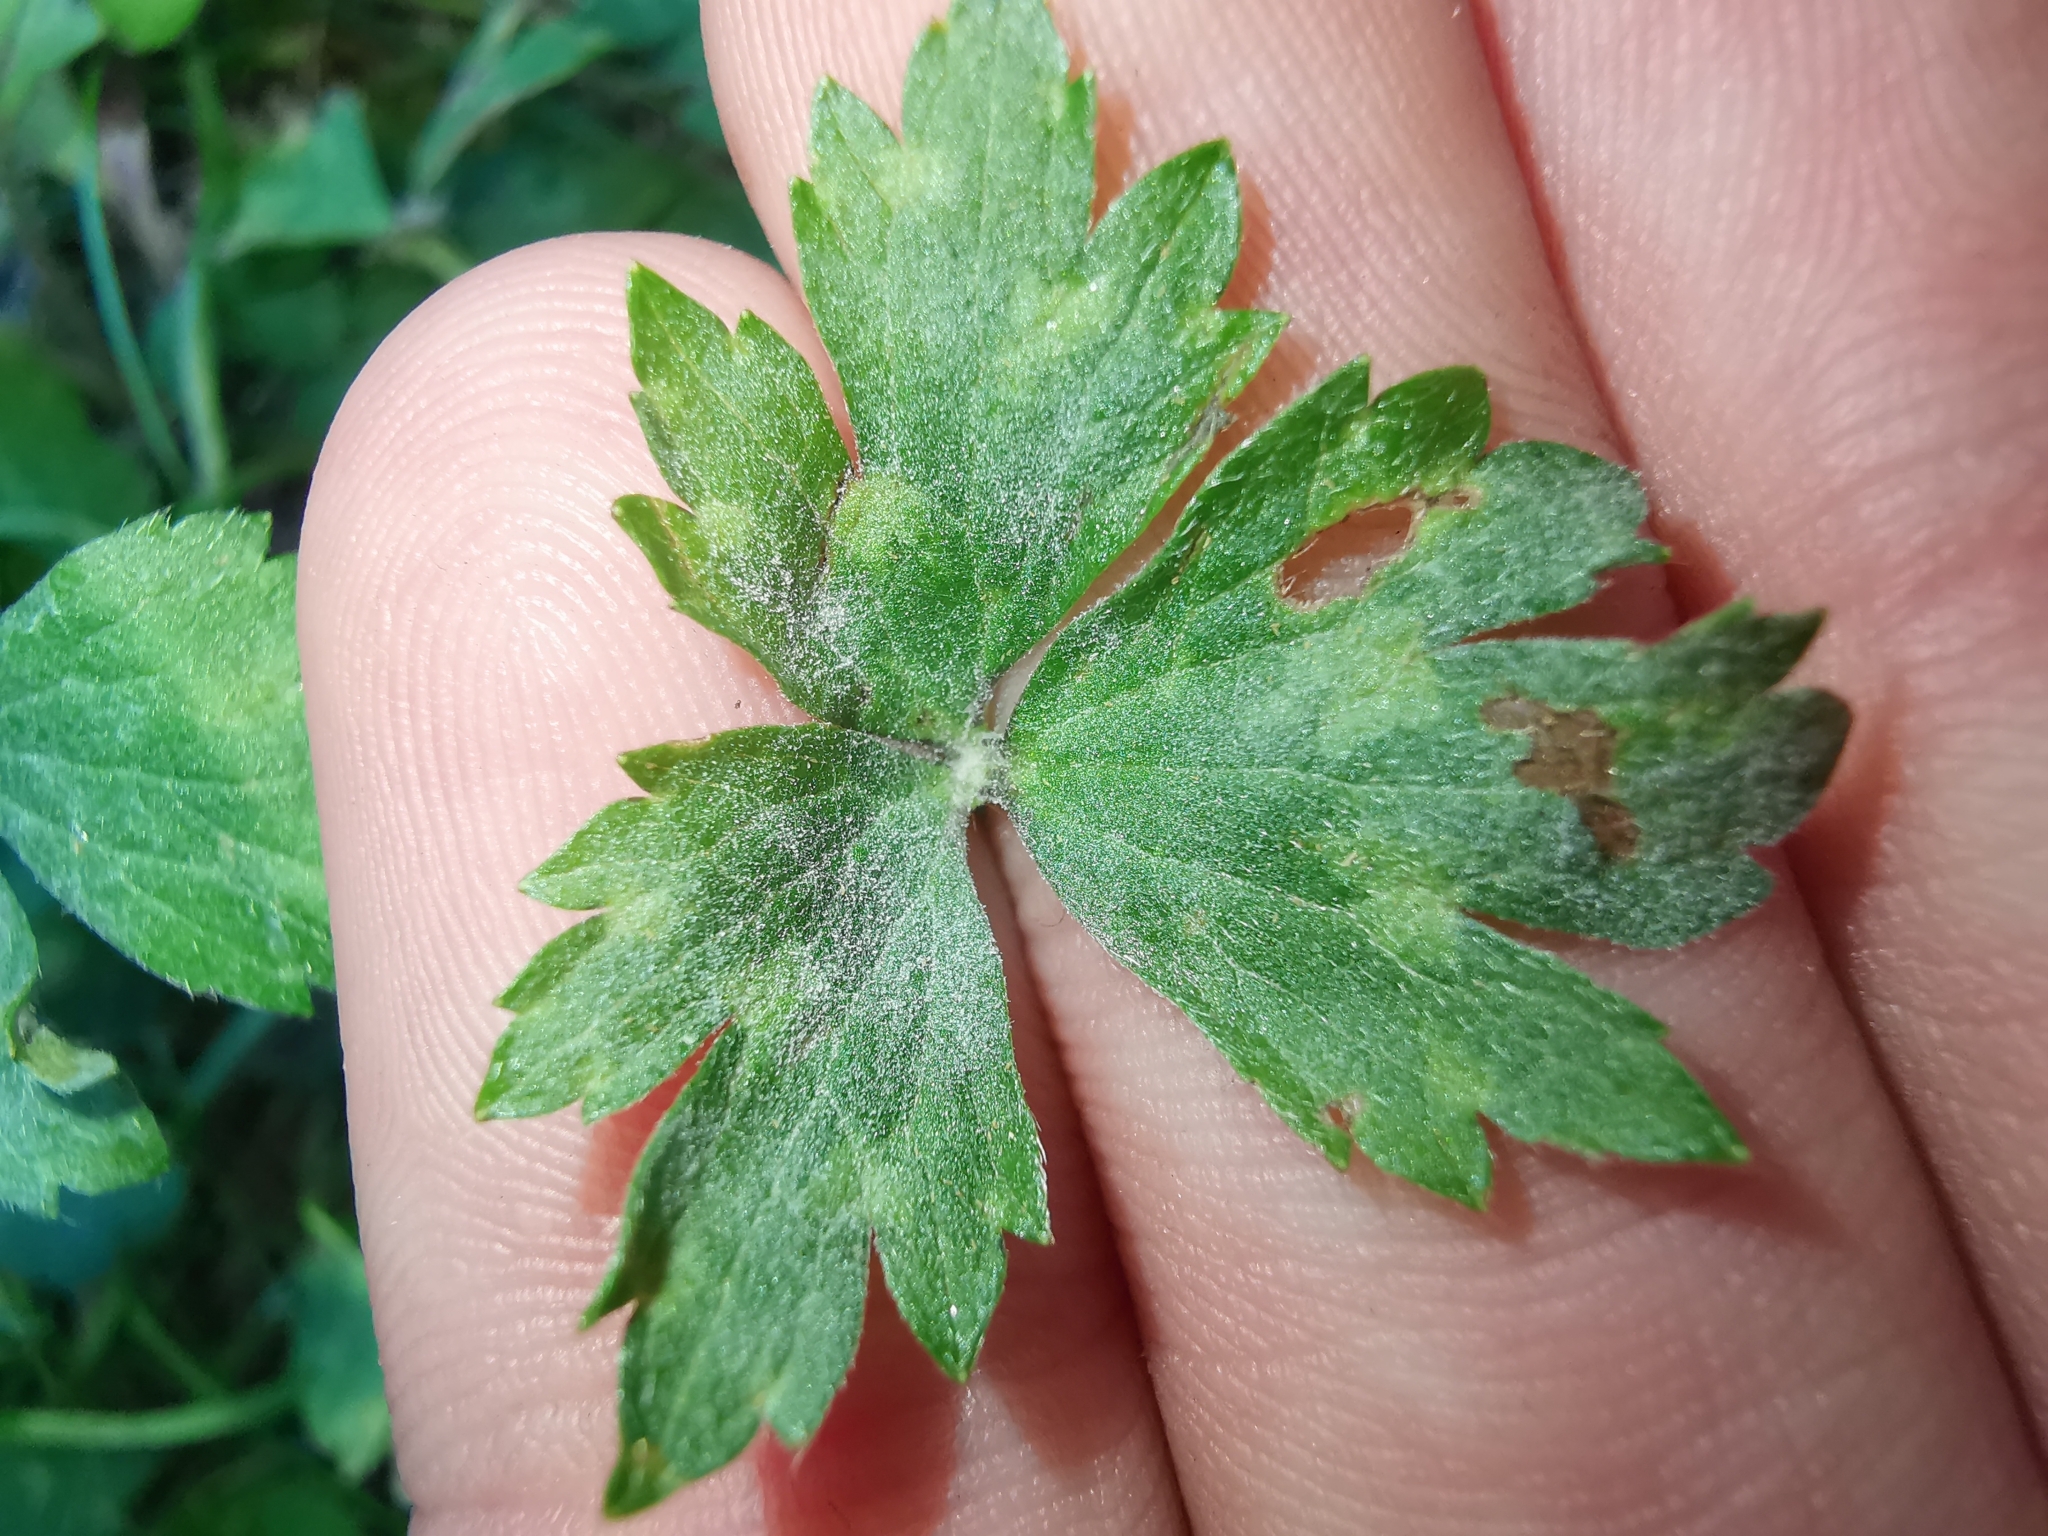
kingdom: Fungi
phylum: Ascomycota
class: Leotiomycetes
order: Helotiales
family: Erysiphaceae
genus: Erysiphe
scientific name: Erysiphe aquilegiae
